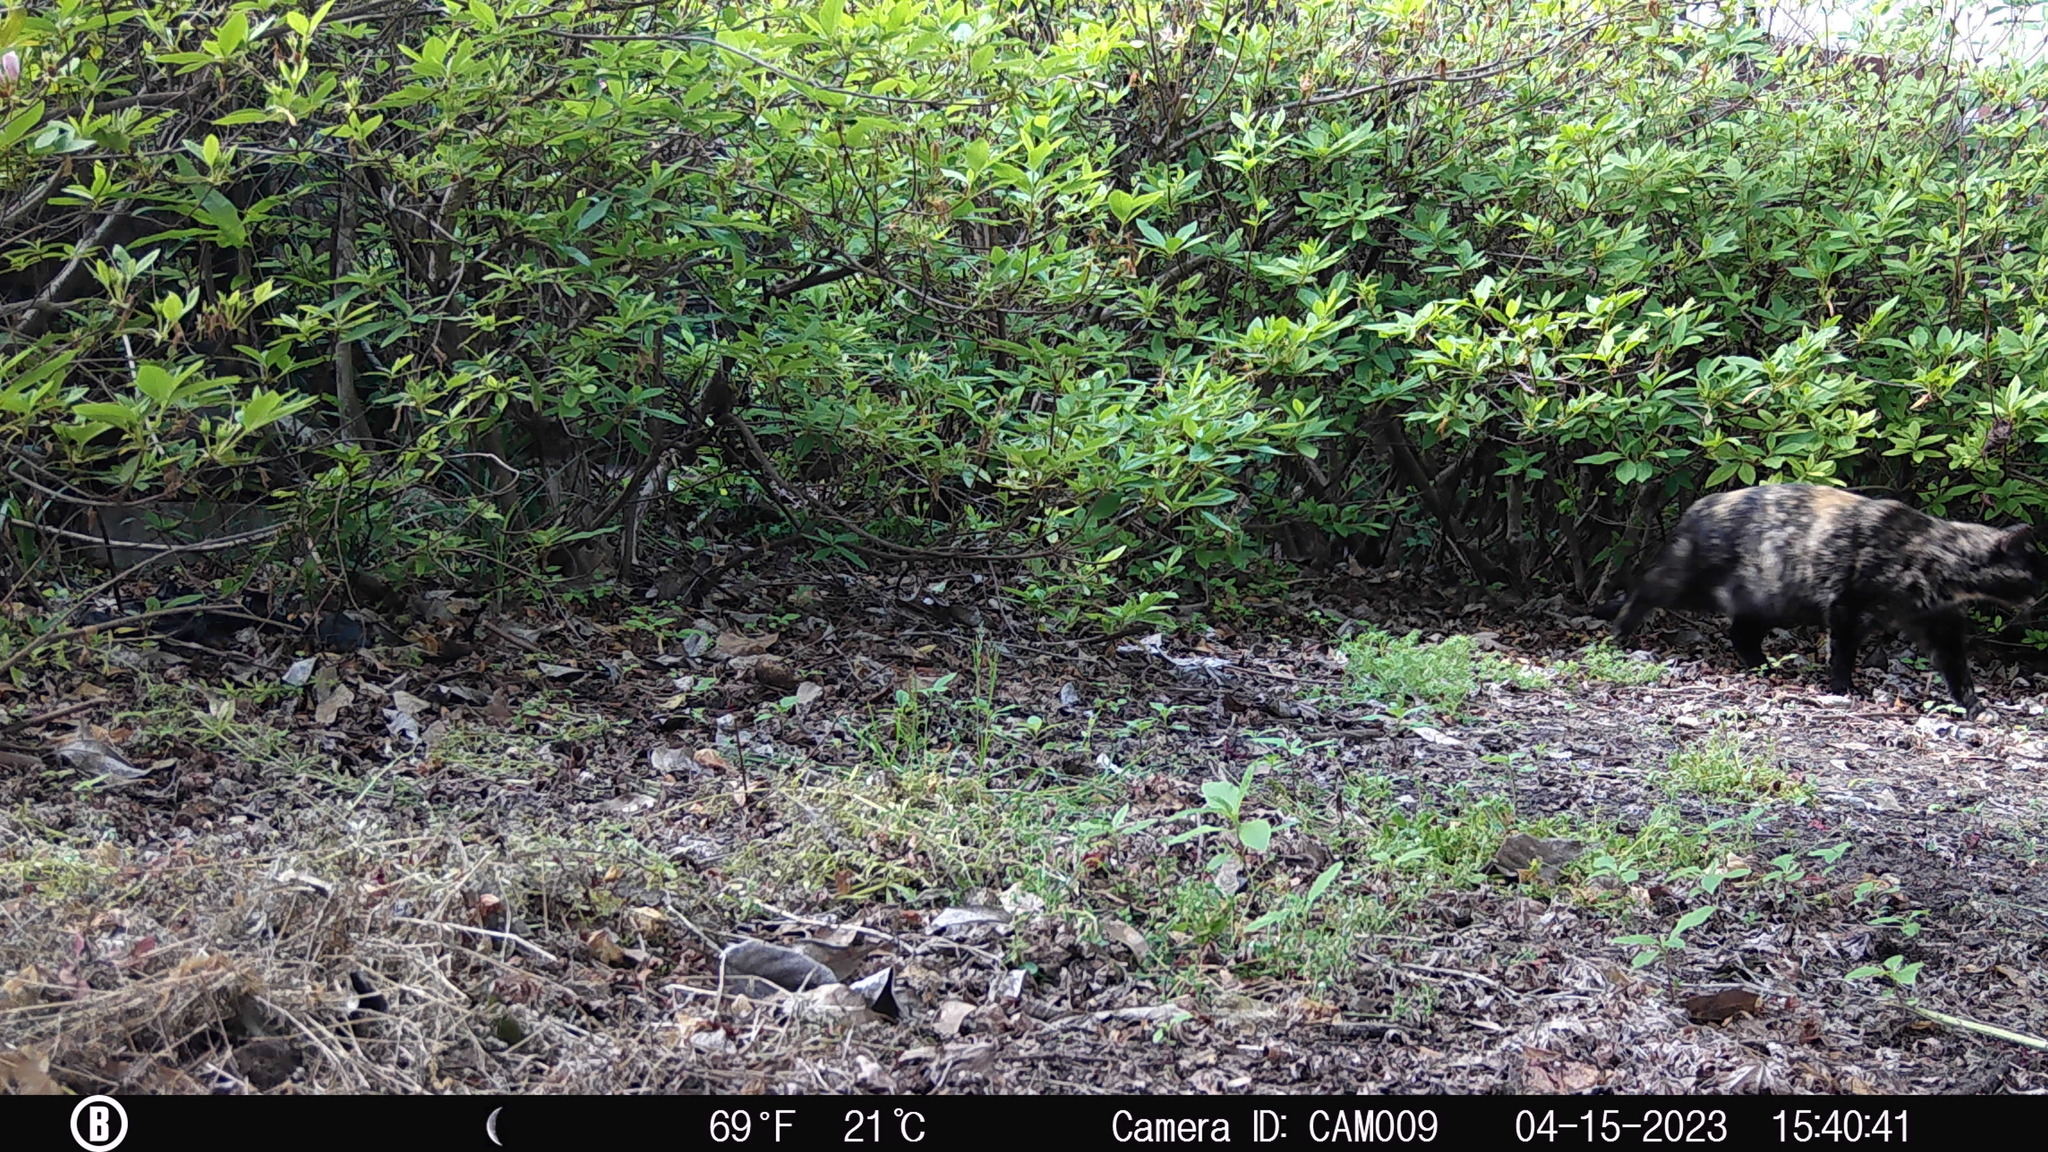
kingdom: Animalia
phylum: Chordata
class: Mammalia
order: Carnivora
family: Felidae
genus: Felis
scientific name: Felis catus
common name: Domestic cat
